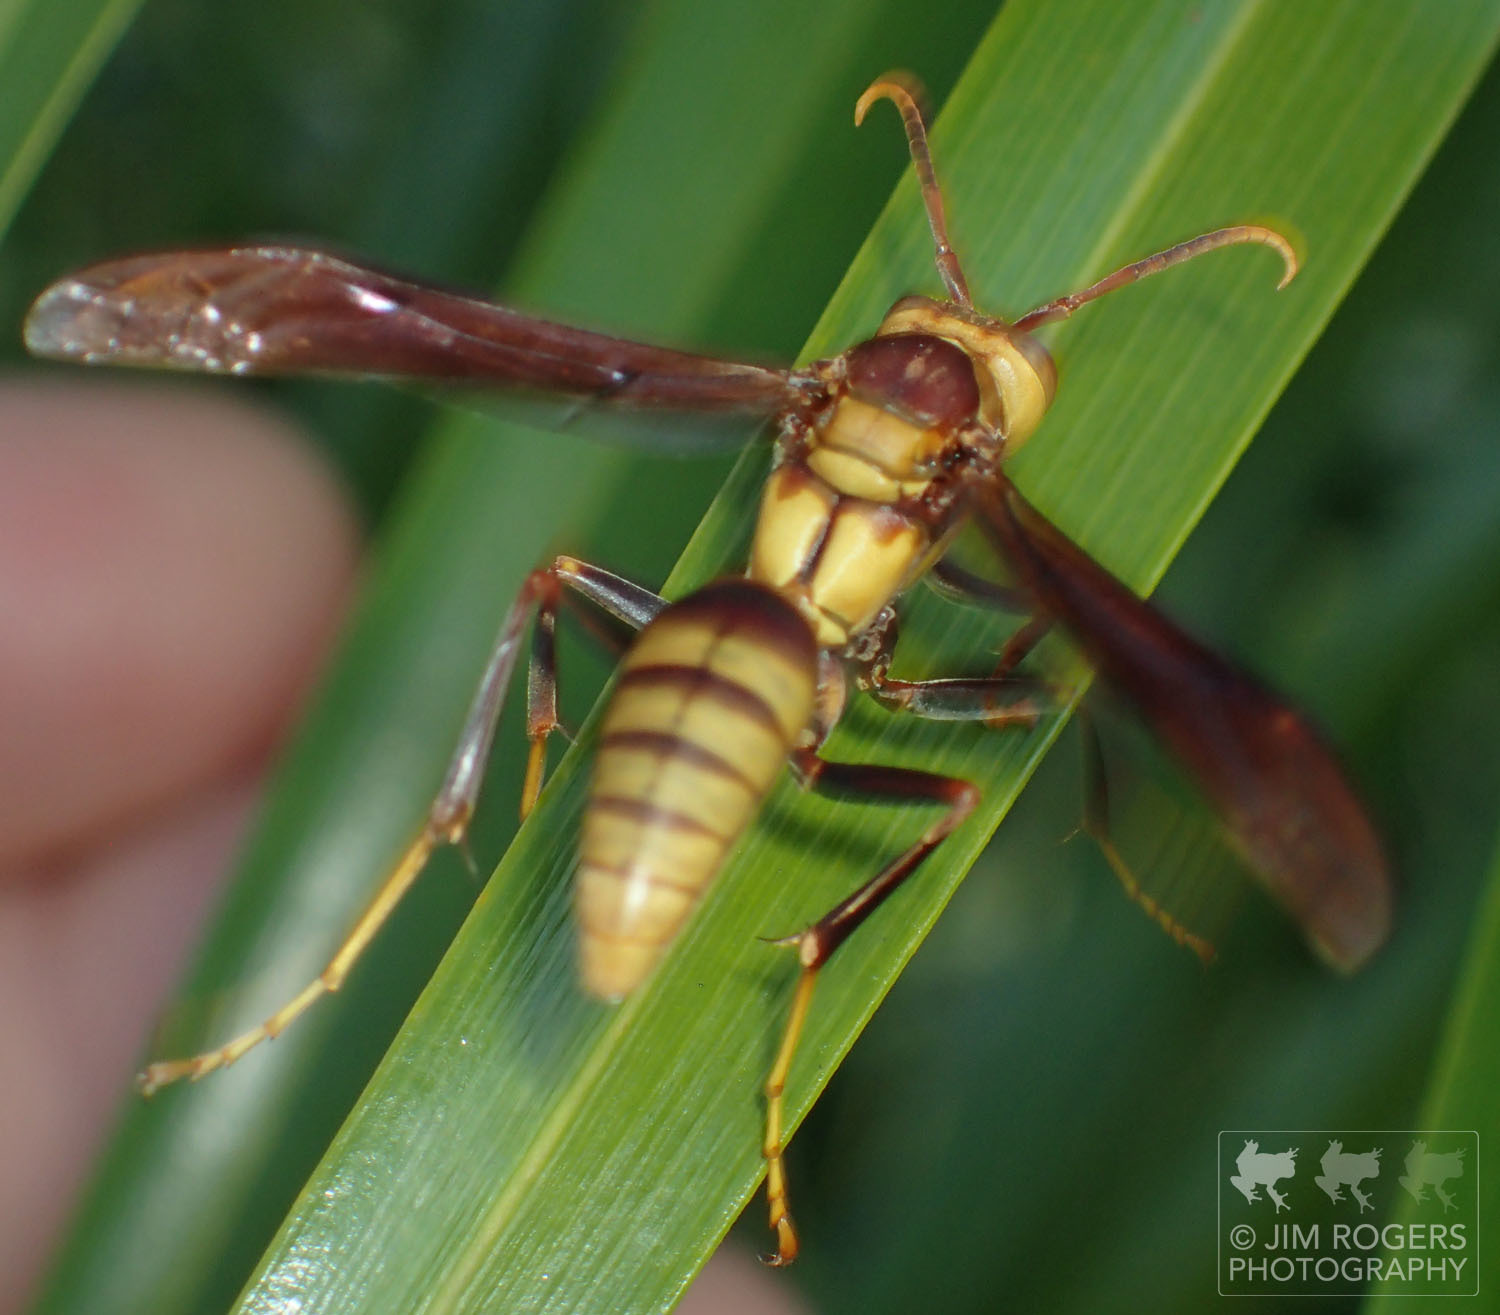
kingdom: Animalia
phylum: Arthropoda
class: Insecta
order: Hymenoptera
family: Eumenidae
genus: Polistes
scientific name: Polistes major
